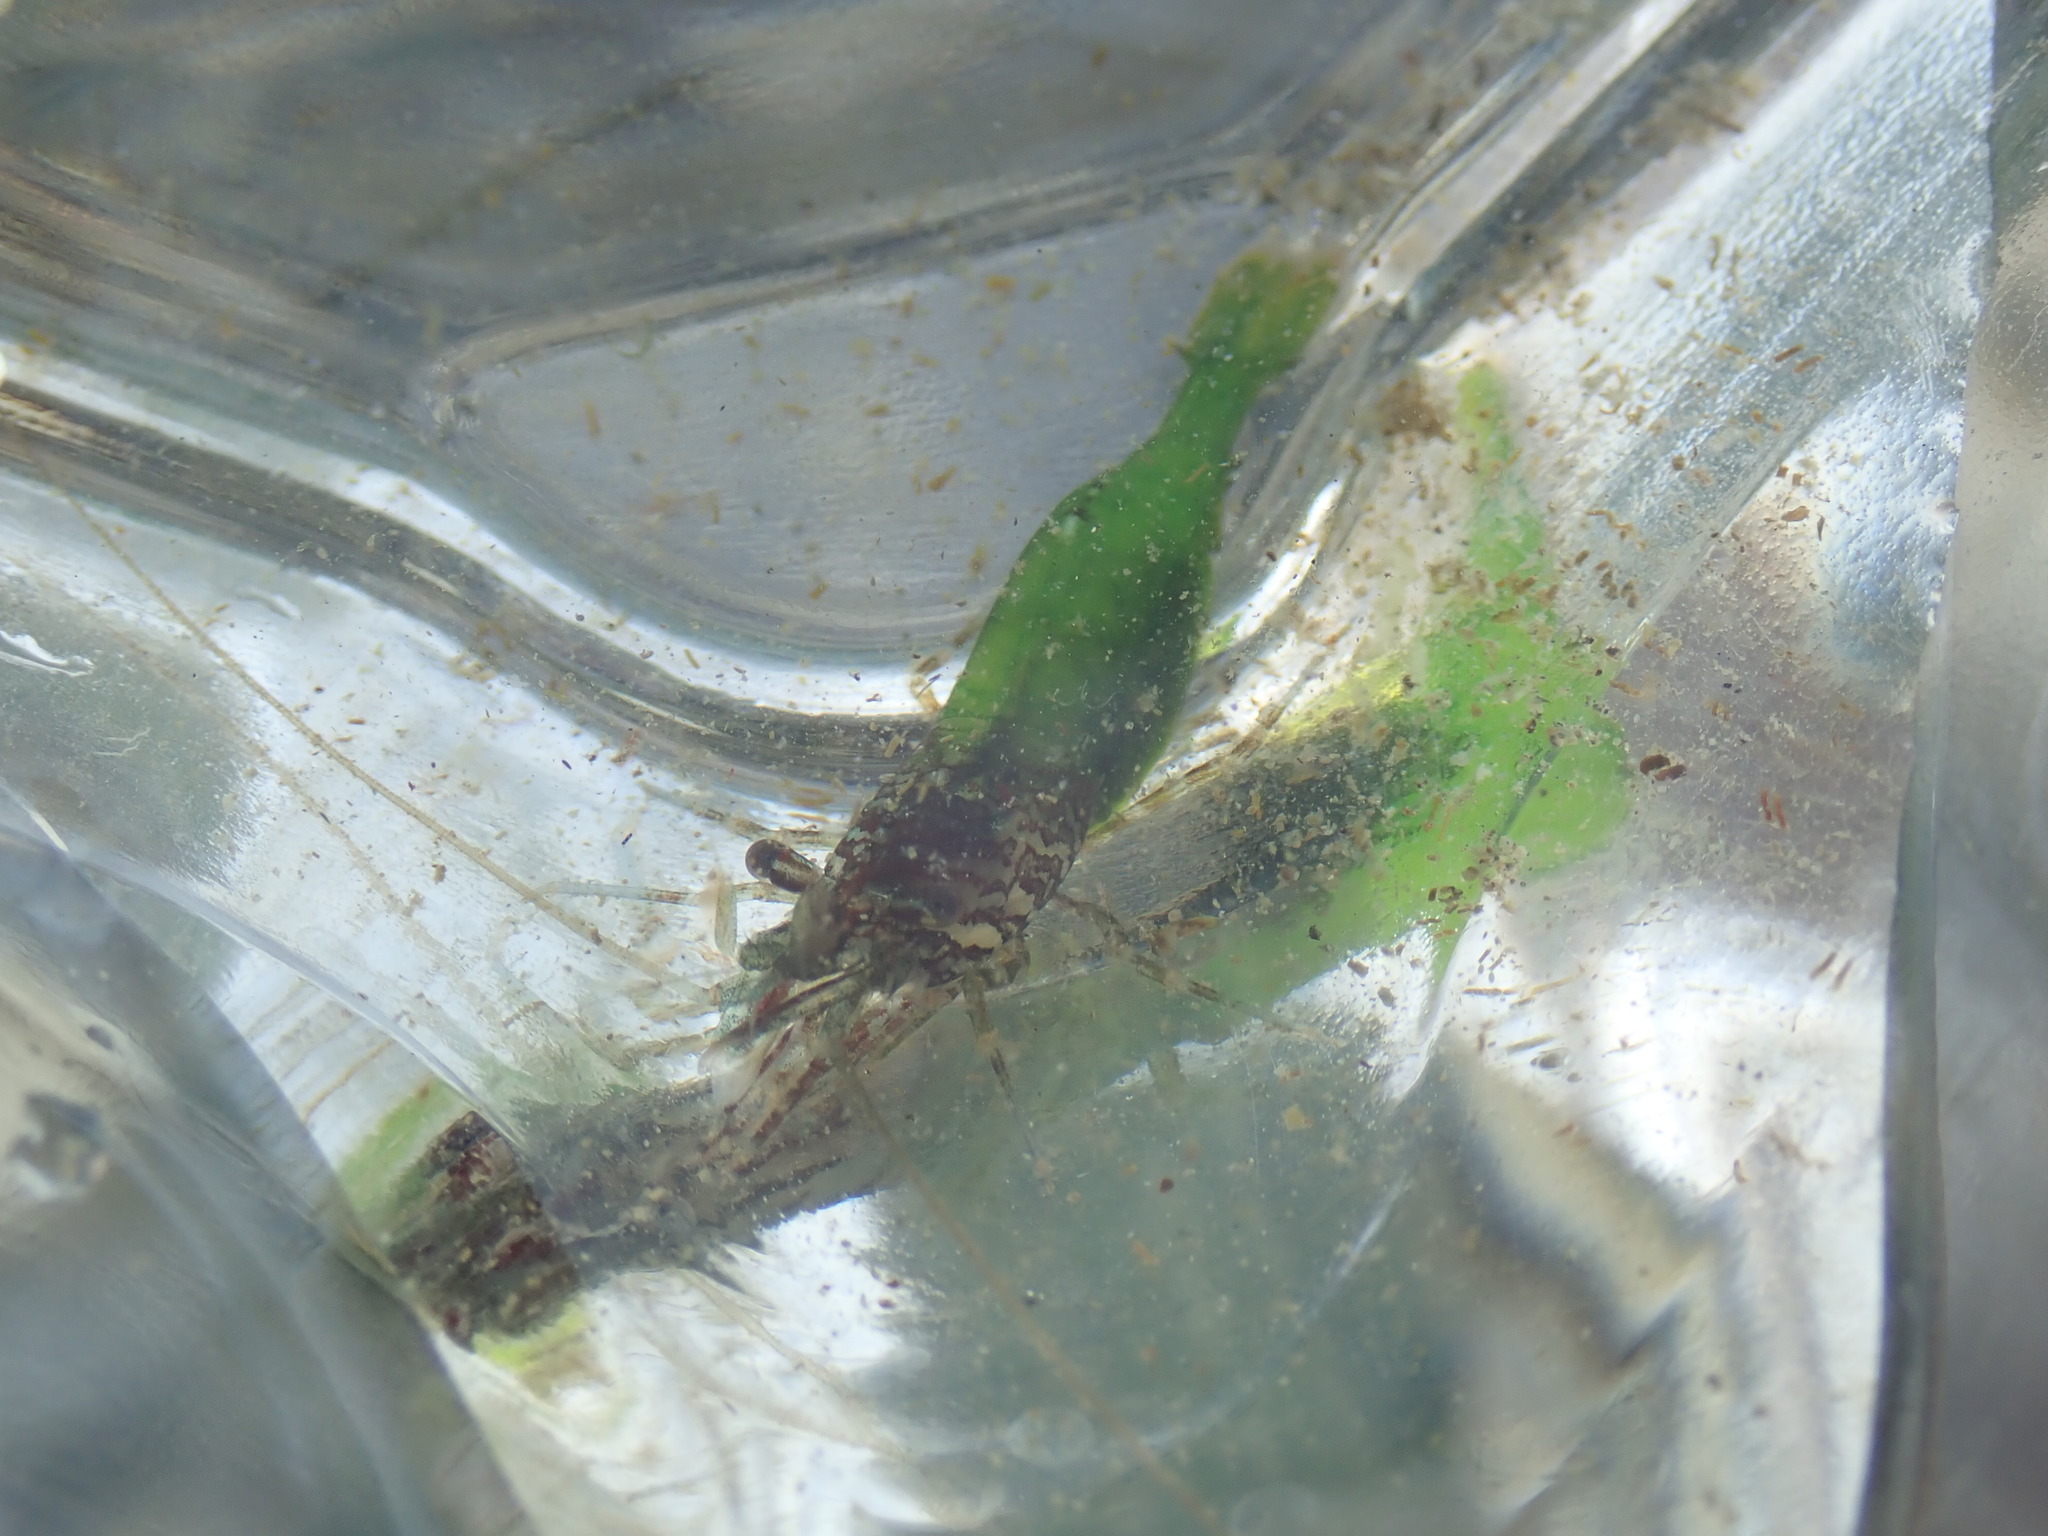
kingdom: Animalia
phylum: Arthropoda
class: Malacostraca
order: Decapoda
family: Thoridae
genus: Heptacarpus
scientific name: Heptacarpus sitchensis
